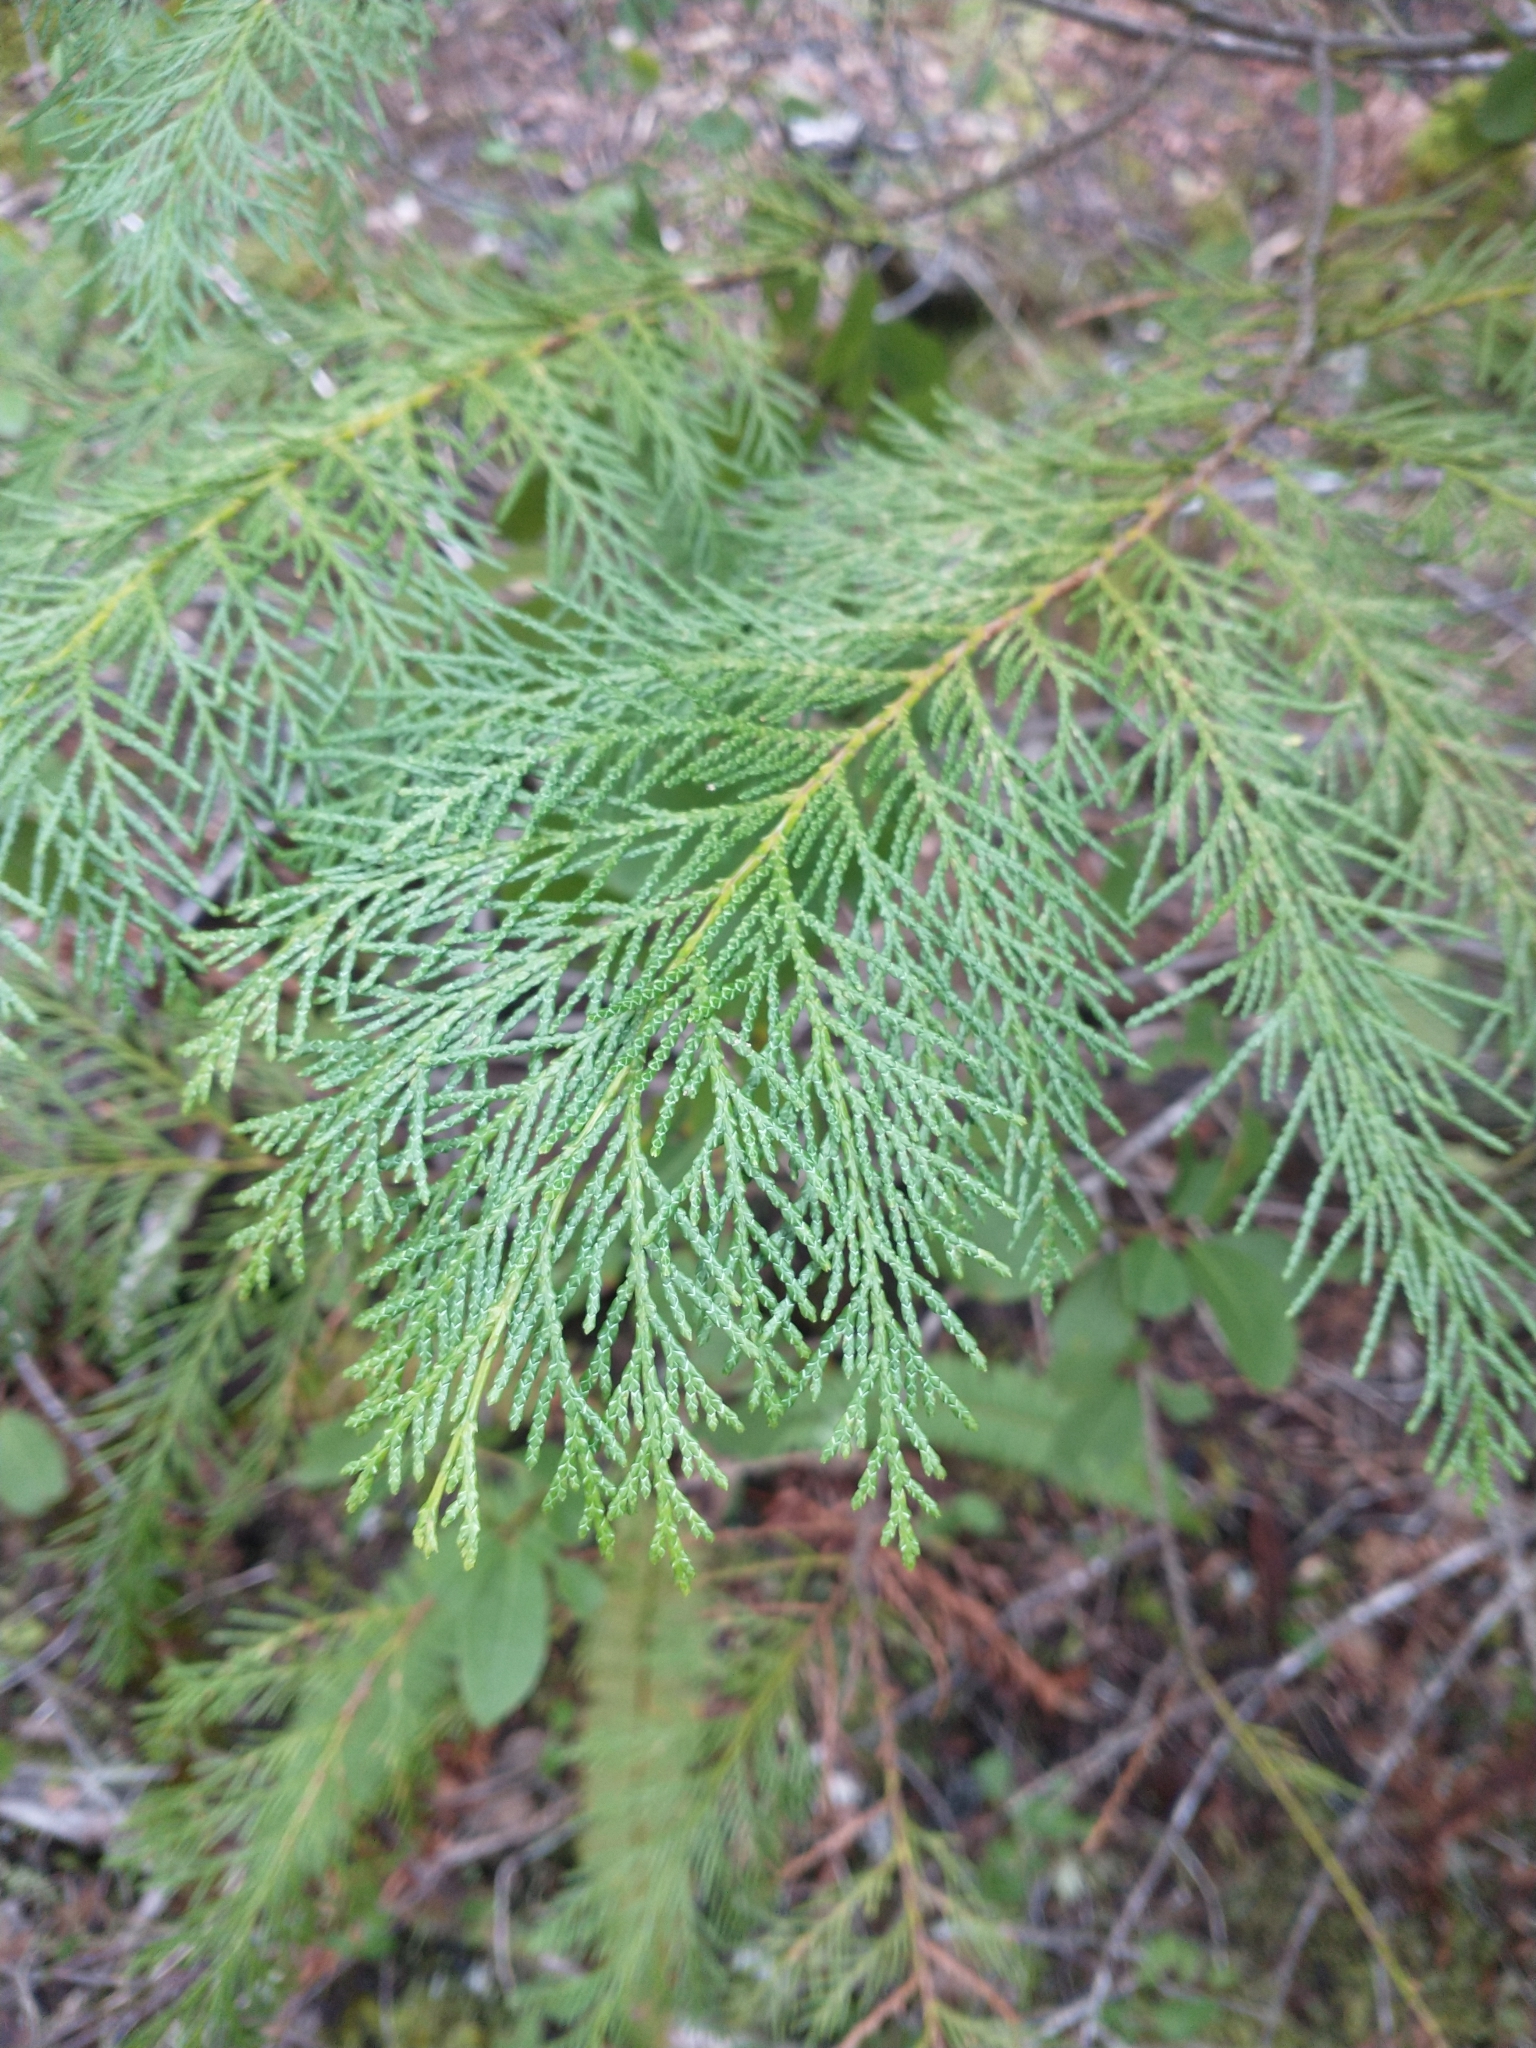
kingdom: Plantae
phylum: Tracheophyta
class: Pinopsida
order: Pinales
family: Cupressaceae
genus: Chamaecyparis
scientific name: Chamaecyparis lawsoniana
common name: Lawson's cypress
